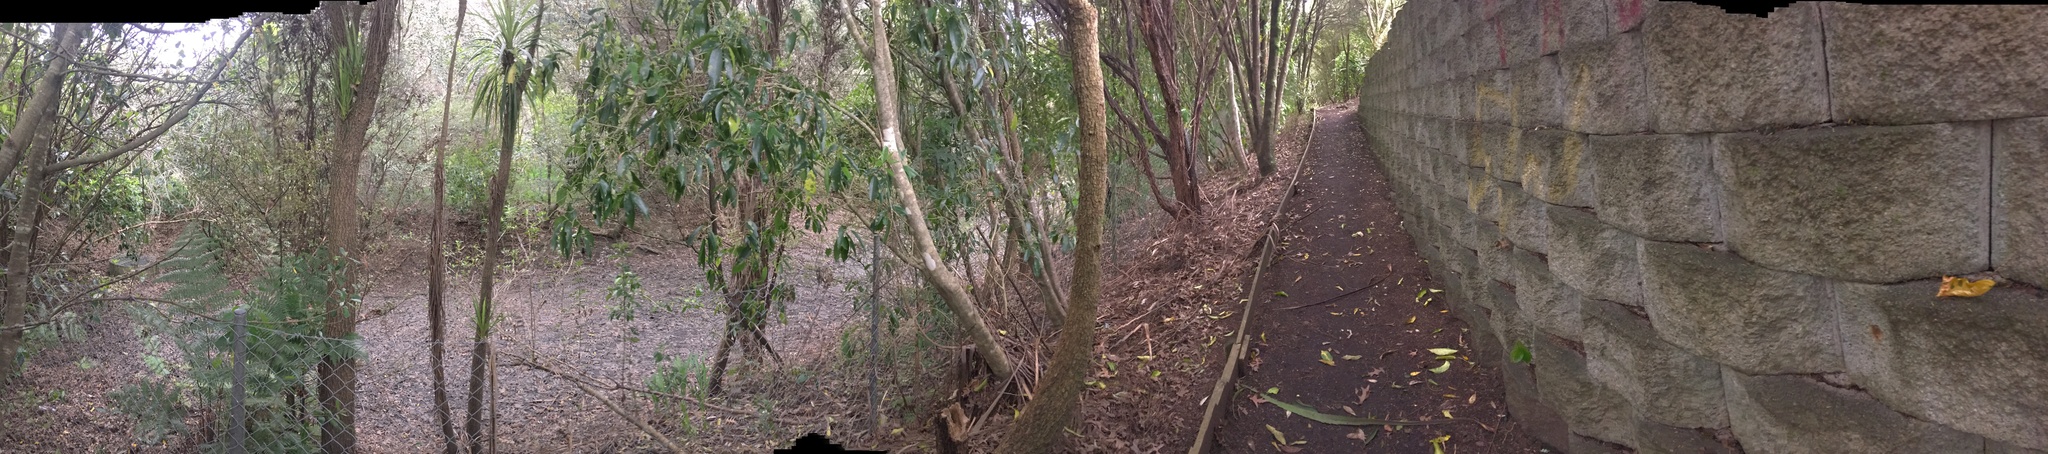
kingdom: Plantae
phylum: Tracheophyta
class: Magnoliopsida
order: Piperales
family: Piperaceae
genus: Macropiper
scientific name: Macropiper excelsum
